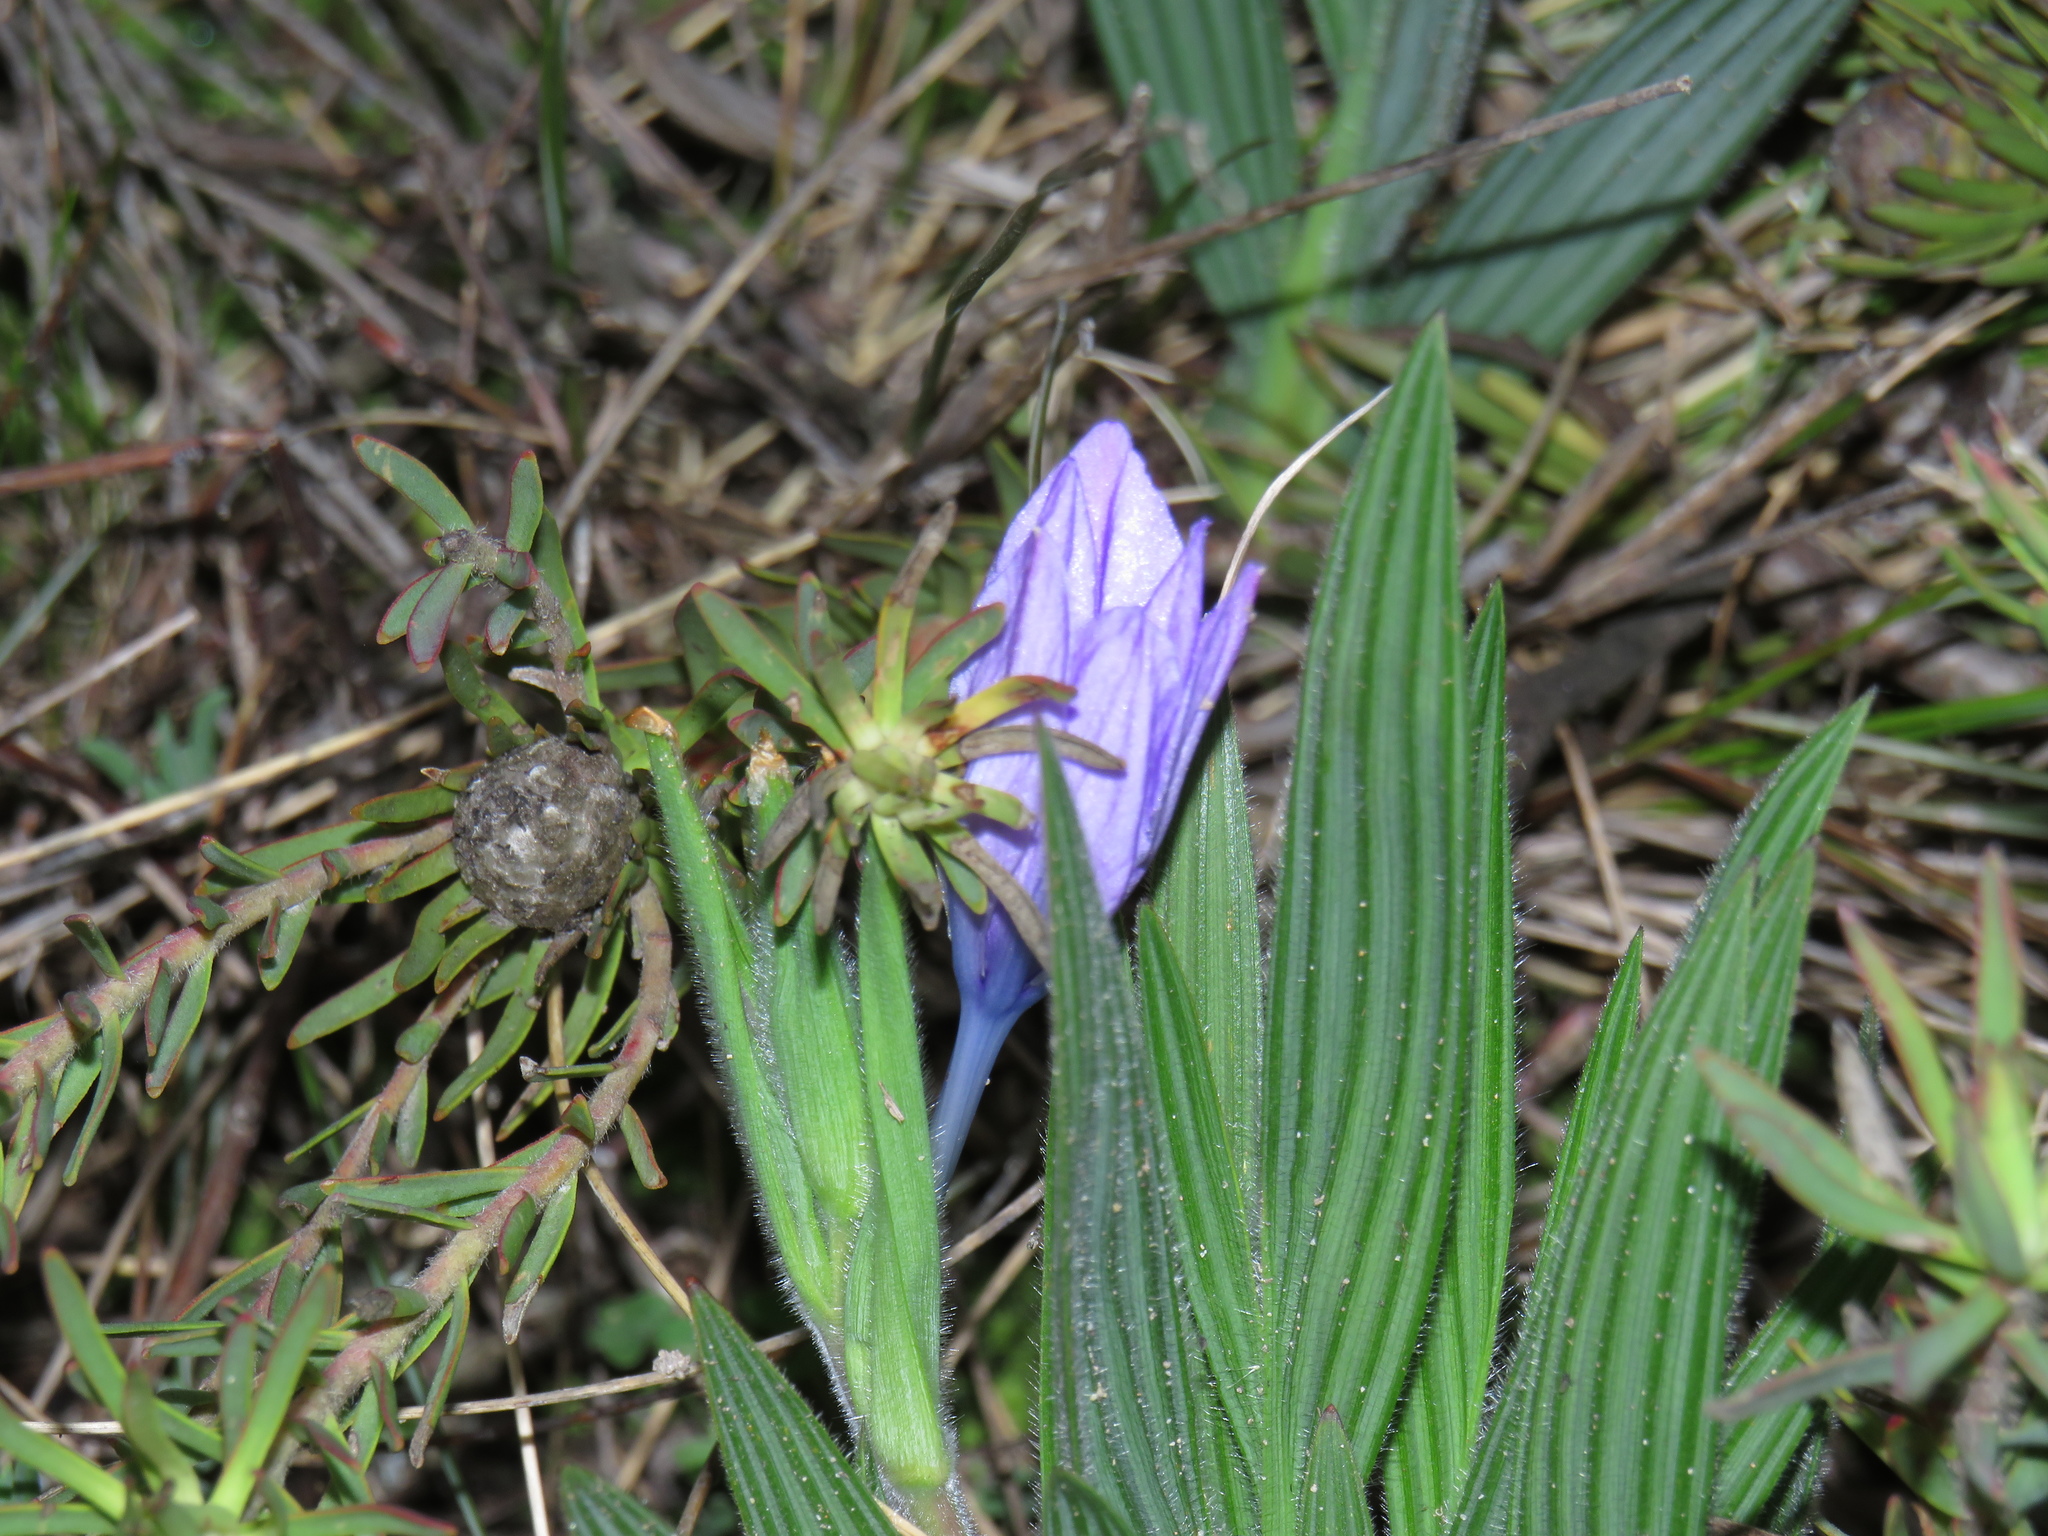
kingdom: Plantae
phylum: Tracheophyta
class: Liliopsida
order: Asparagales
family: Iridaceae
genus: Babiana
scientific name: Babiana villosula
